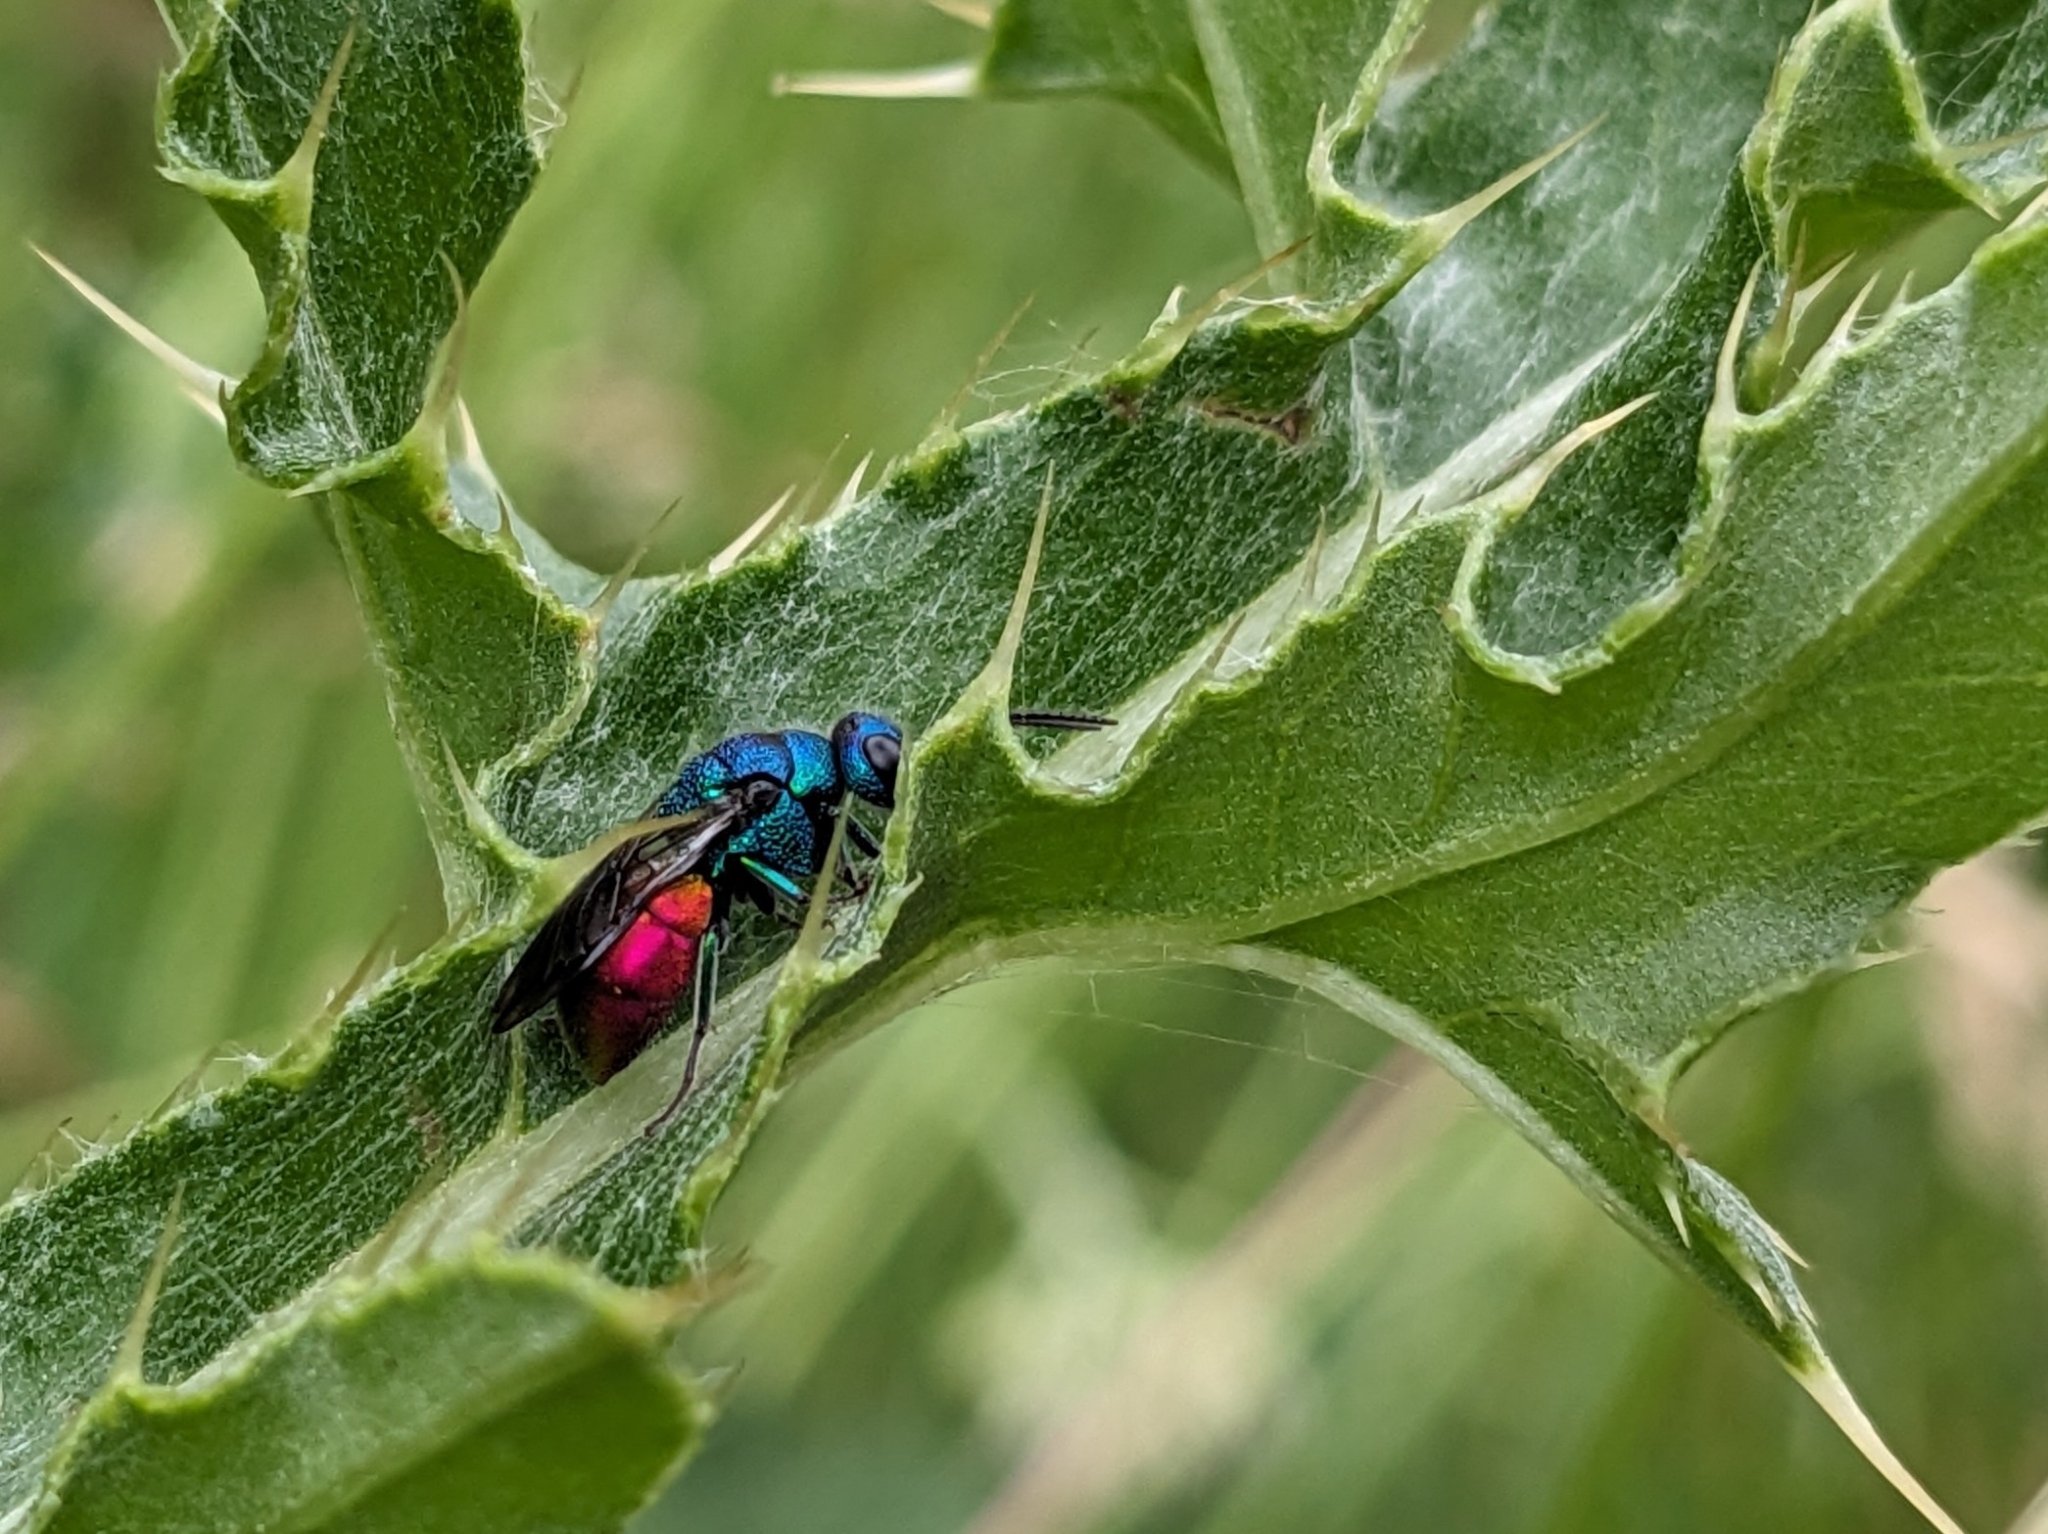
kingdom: Animalia
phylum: Arthropoda
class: Insecta
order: Hymenoptera
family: Chrysididae
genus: Holopyga
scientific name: Holopyga fastuosa
